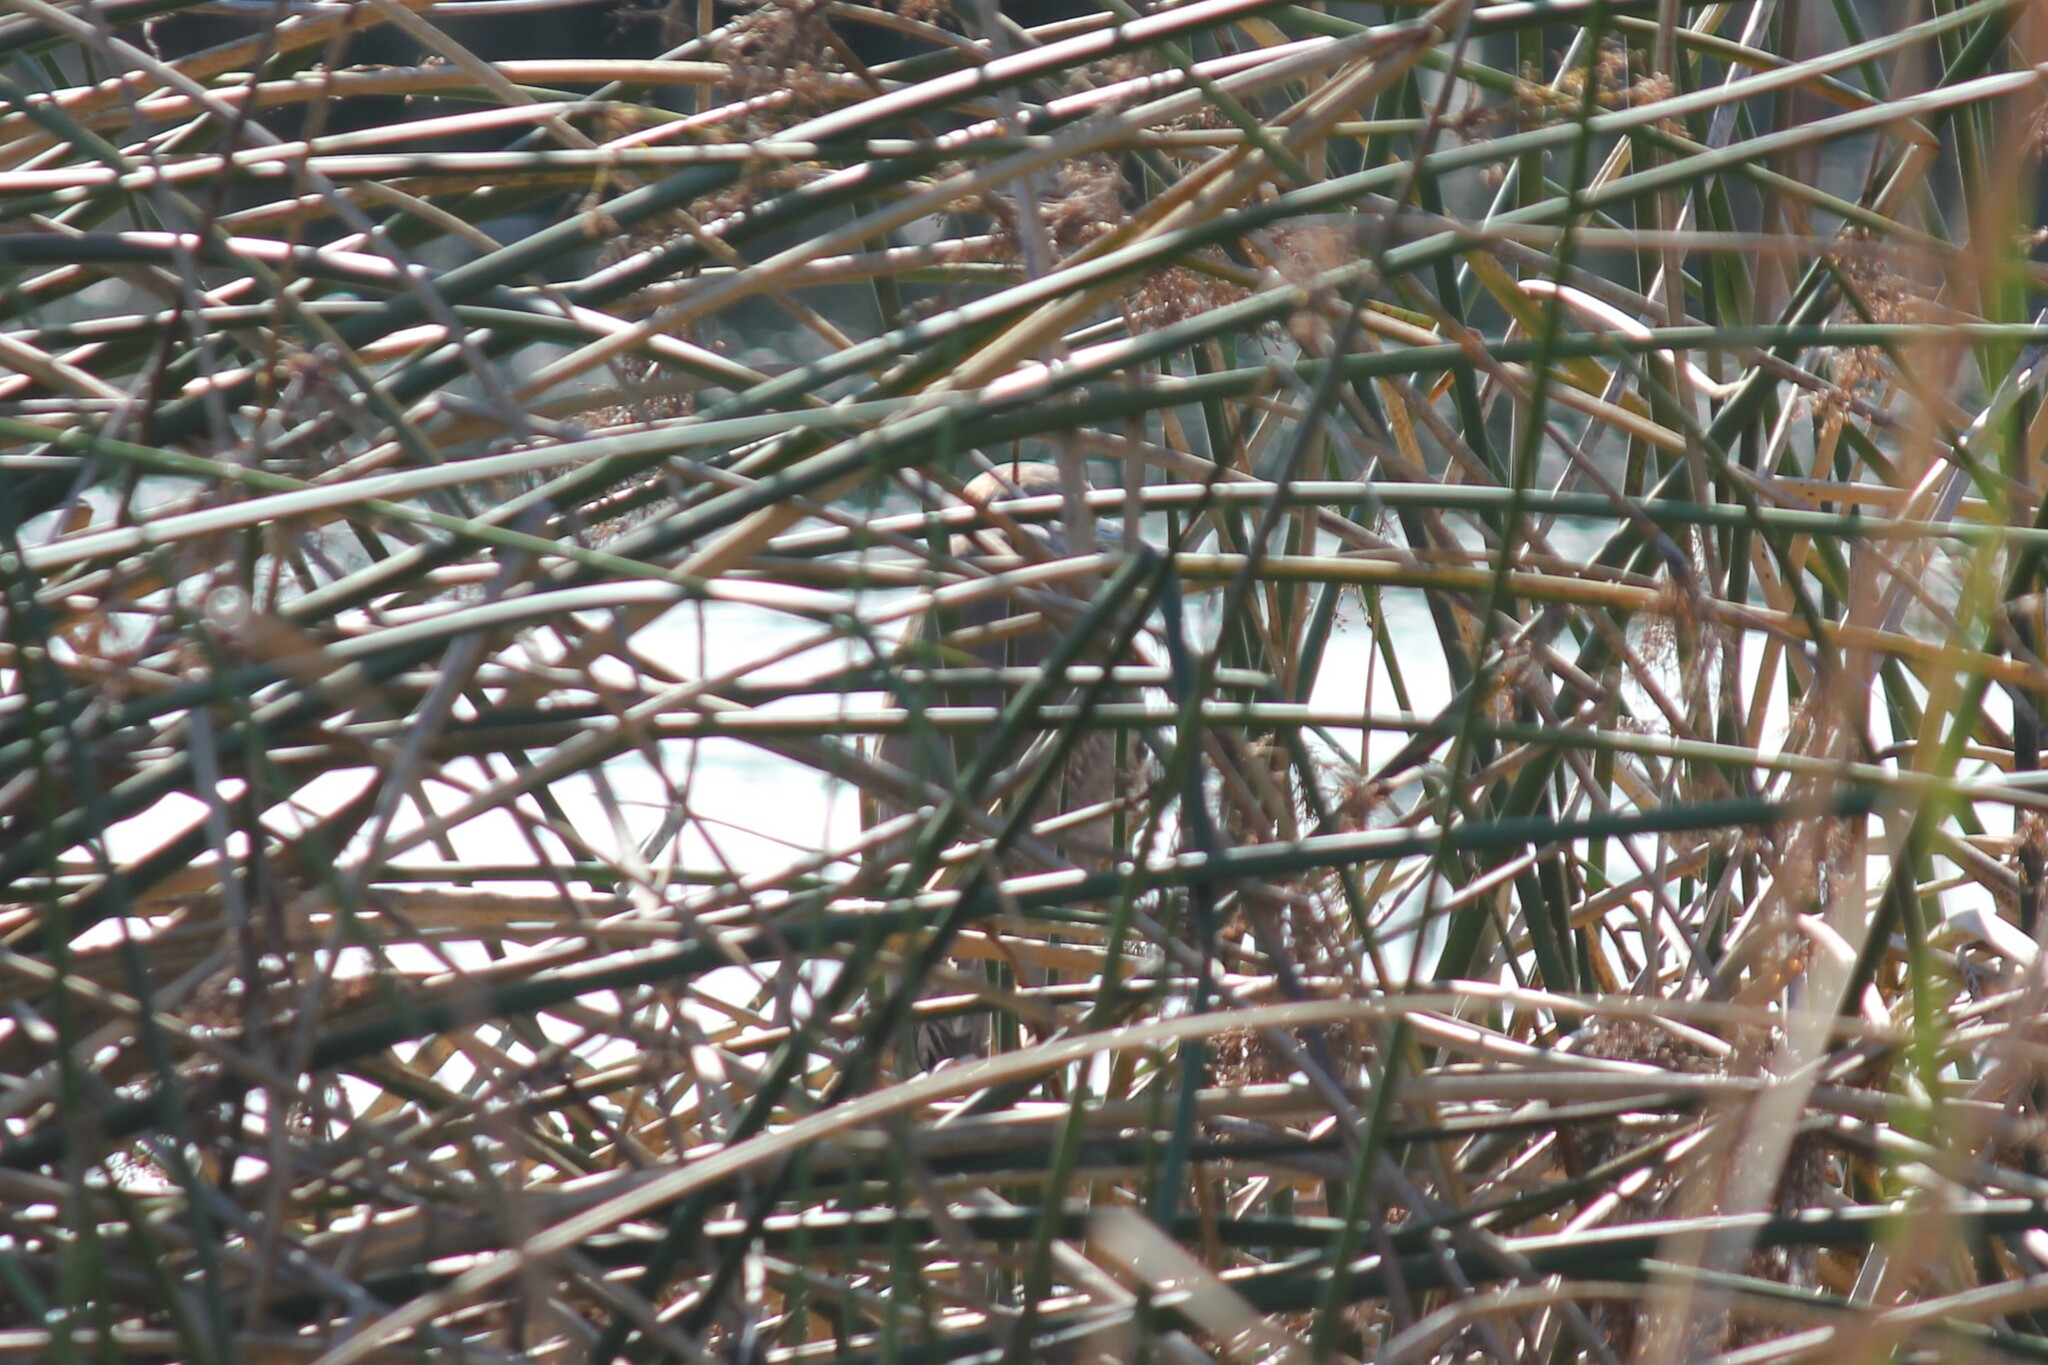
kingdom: Animalia
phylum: Chordata
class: Aves
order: Pelecaniformes
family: Ardeidae
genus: Nycticorax
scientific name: Nycticorax nycticorax
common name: Black-crowned night heron
